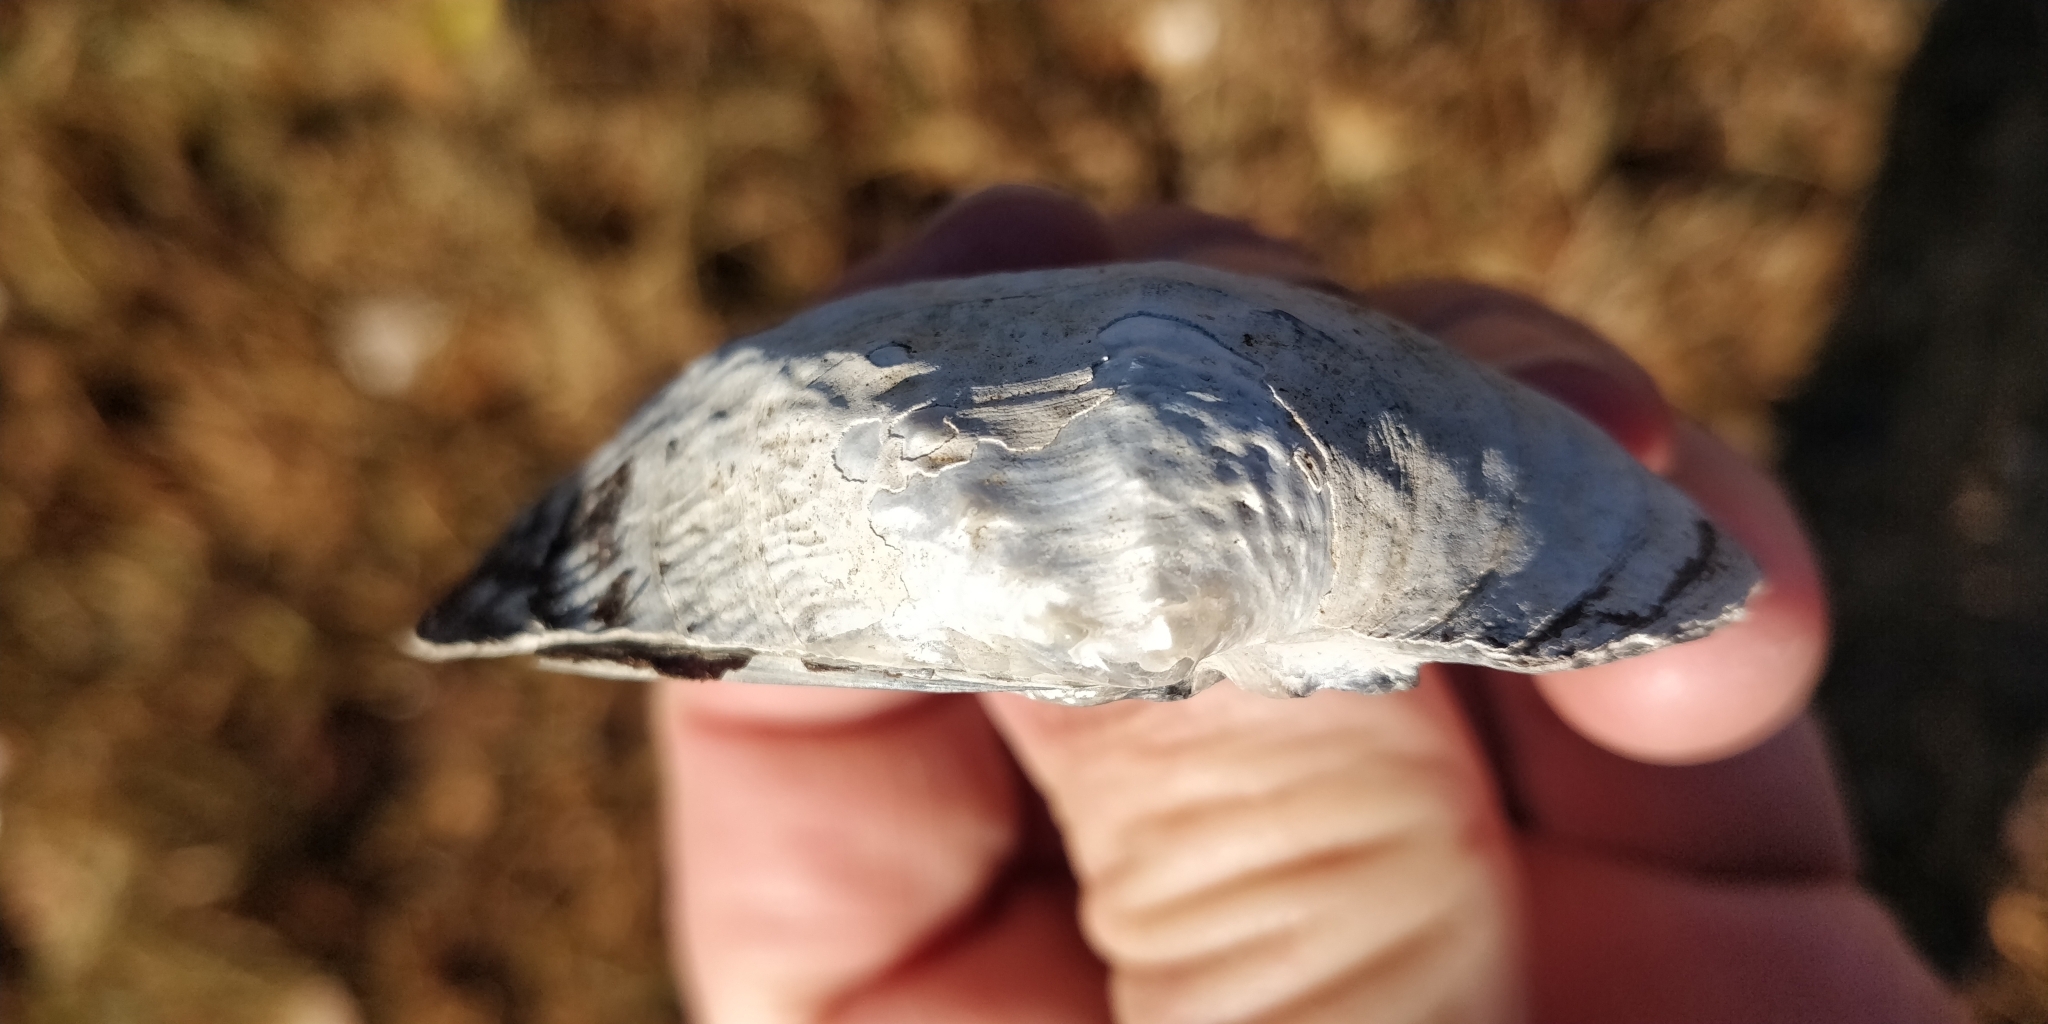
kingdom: Animalia
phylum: Mollusca
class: Bivalvia
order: Unionida
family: Unionidae
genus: Arcidens
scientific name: Arcidens confragosus
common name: Rock pocketbook
